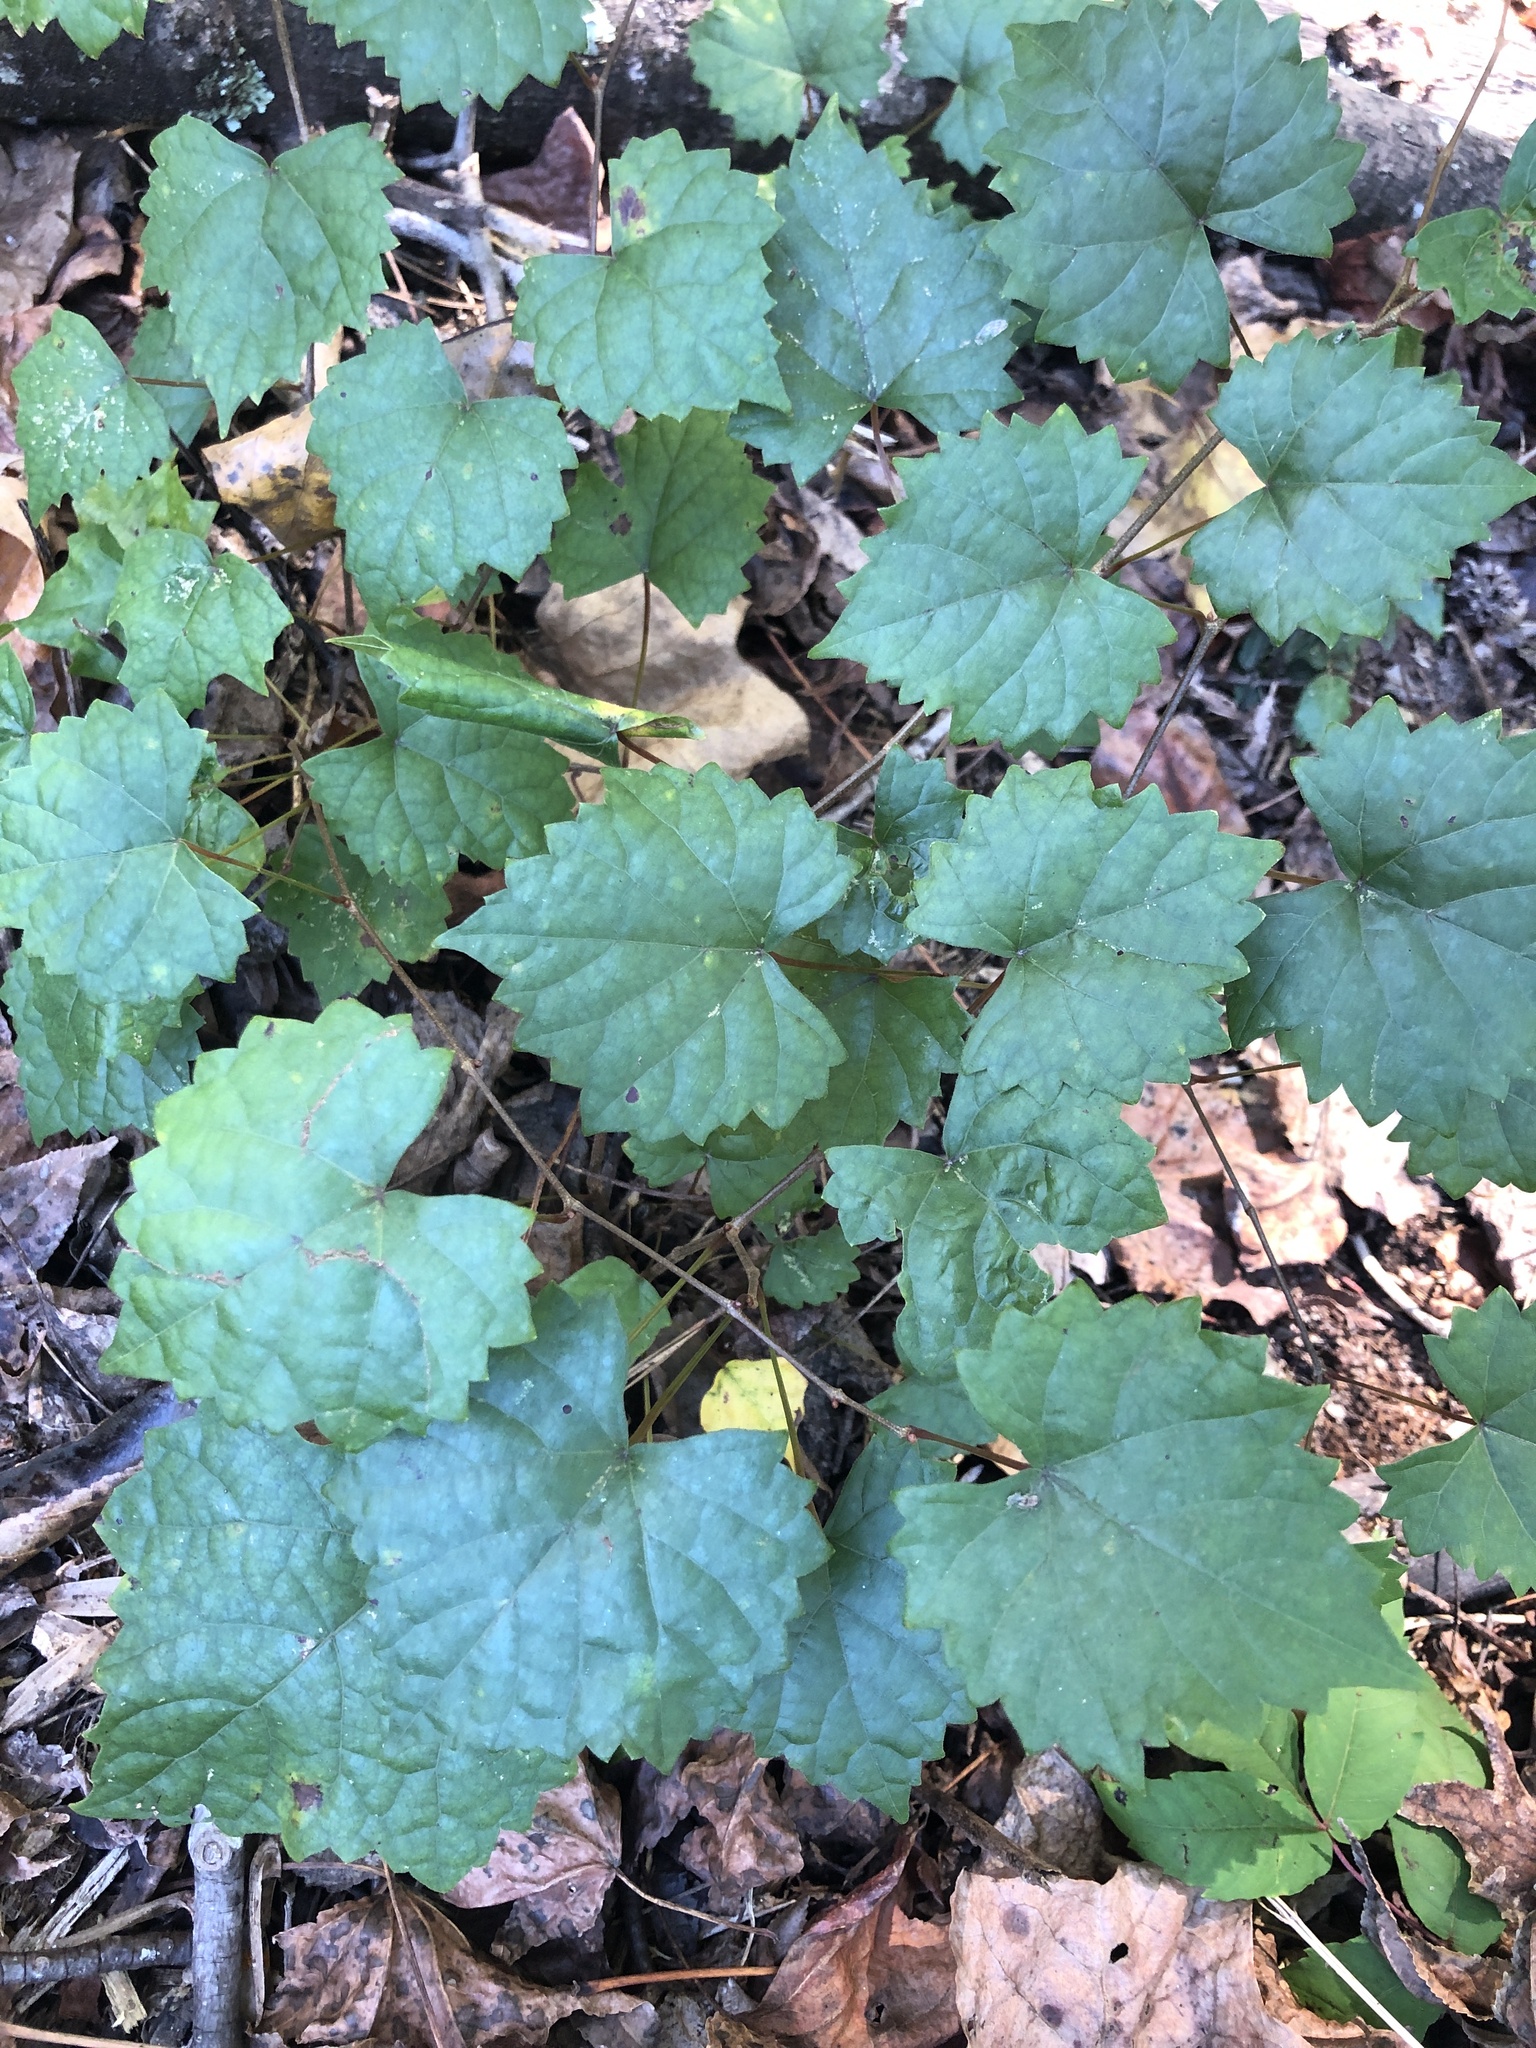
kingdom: Plantae
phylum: Tracheophyta
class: Magnoliopsida
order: Vitales
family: Vitaceae
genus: Vitis
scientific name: Vitis rotundifolia
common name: Muscadine grape
